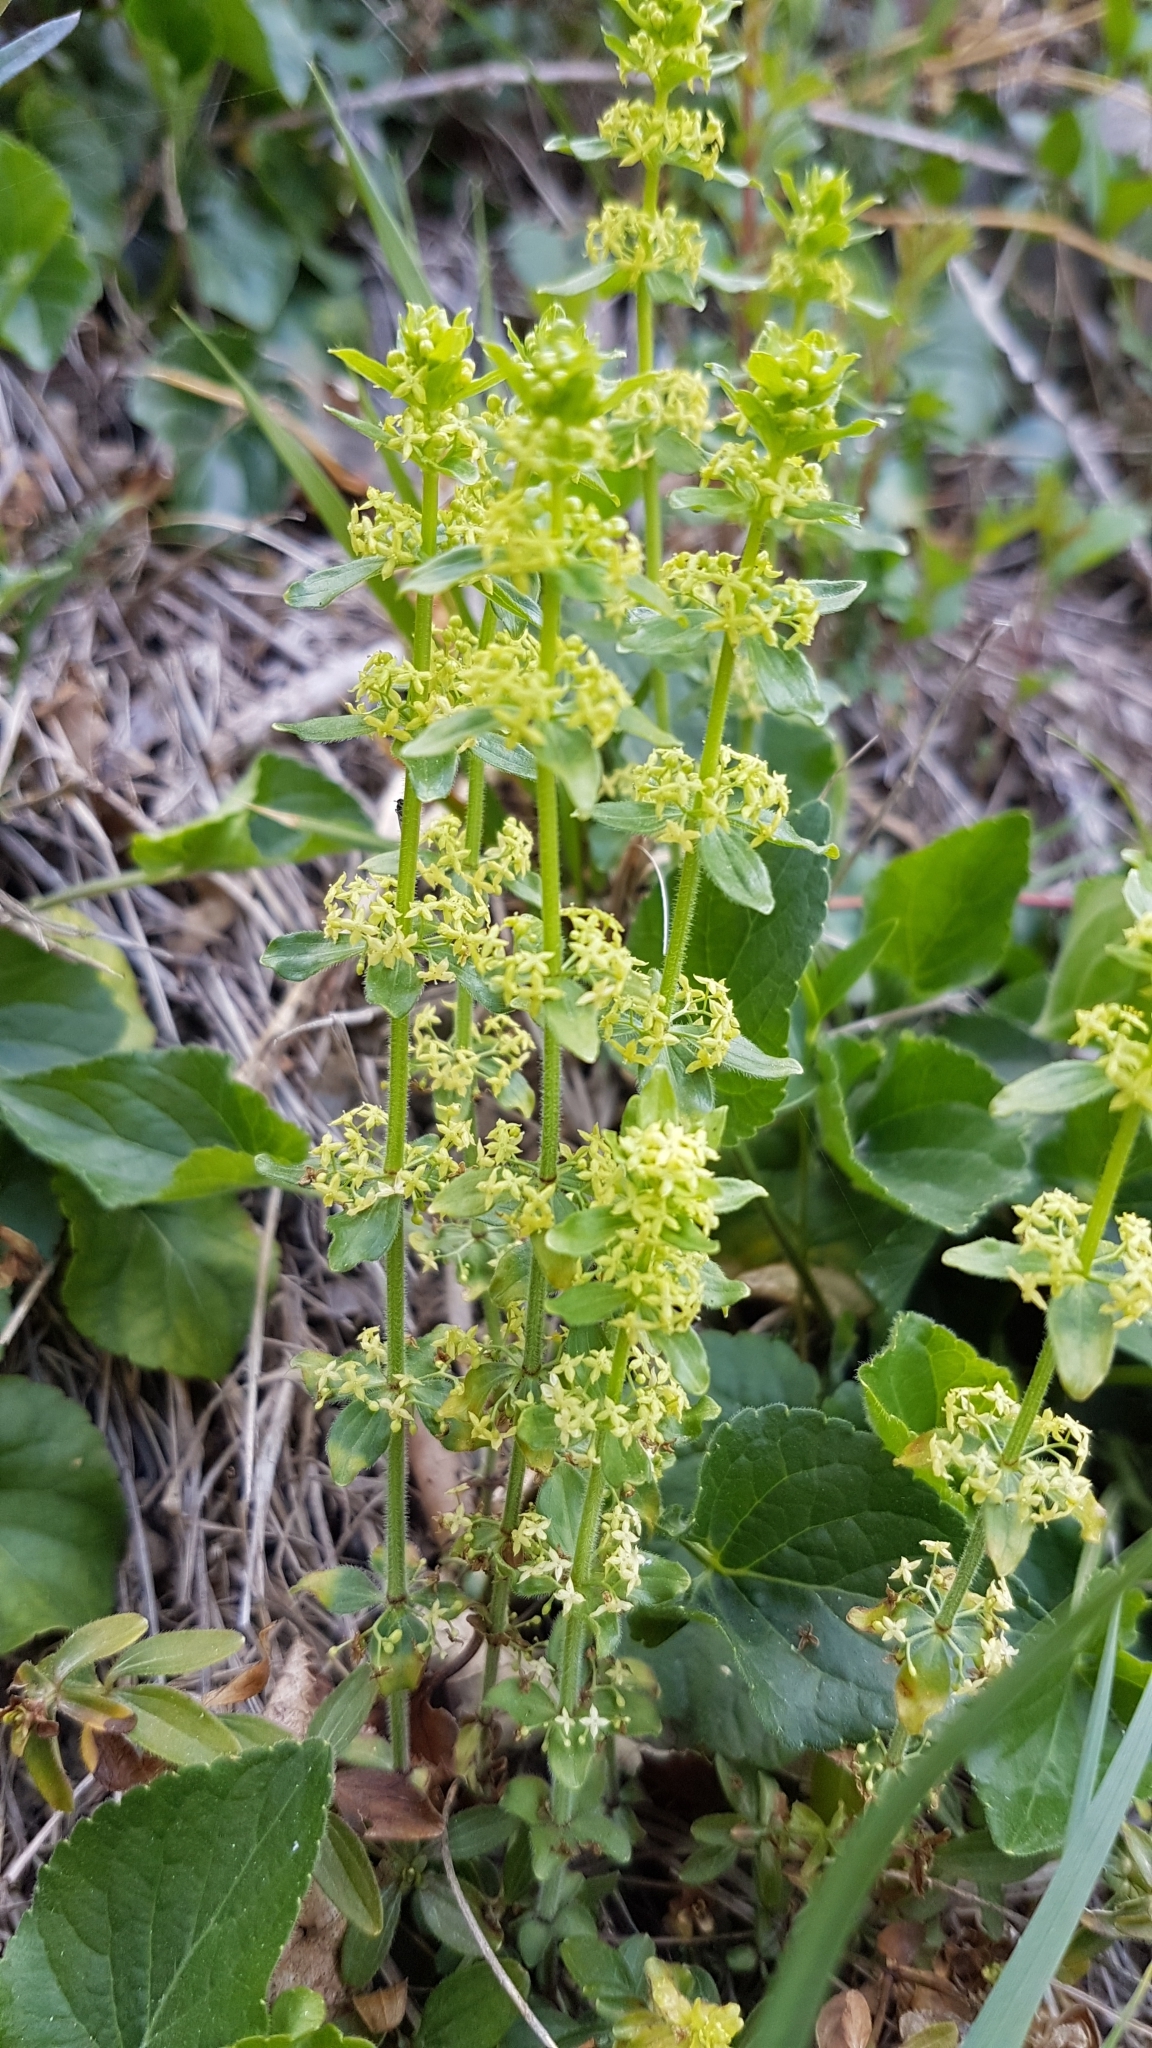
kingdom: Plantae
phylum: Tracheophyta
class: Magnoliopsida
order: Gentianales
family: Rubiaceae
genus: Cruciata
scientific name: Cruciata glabra
